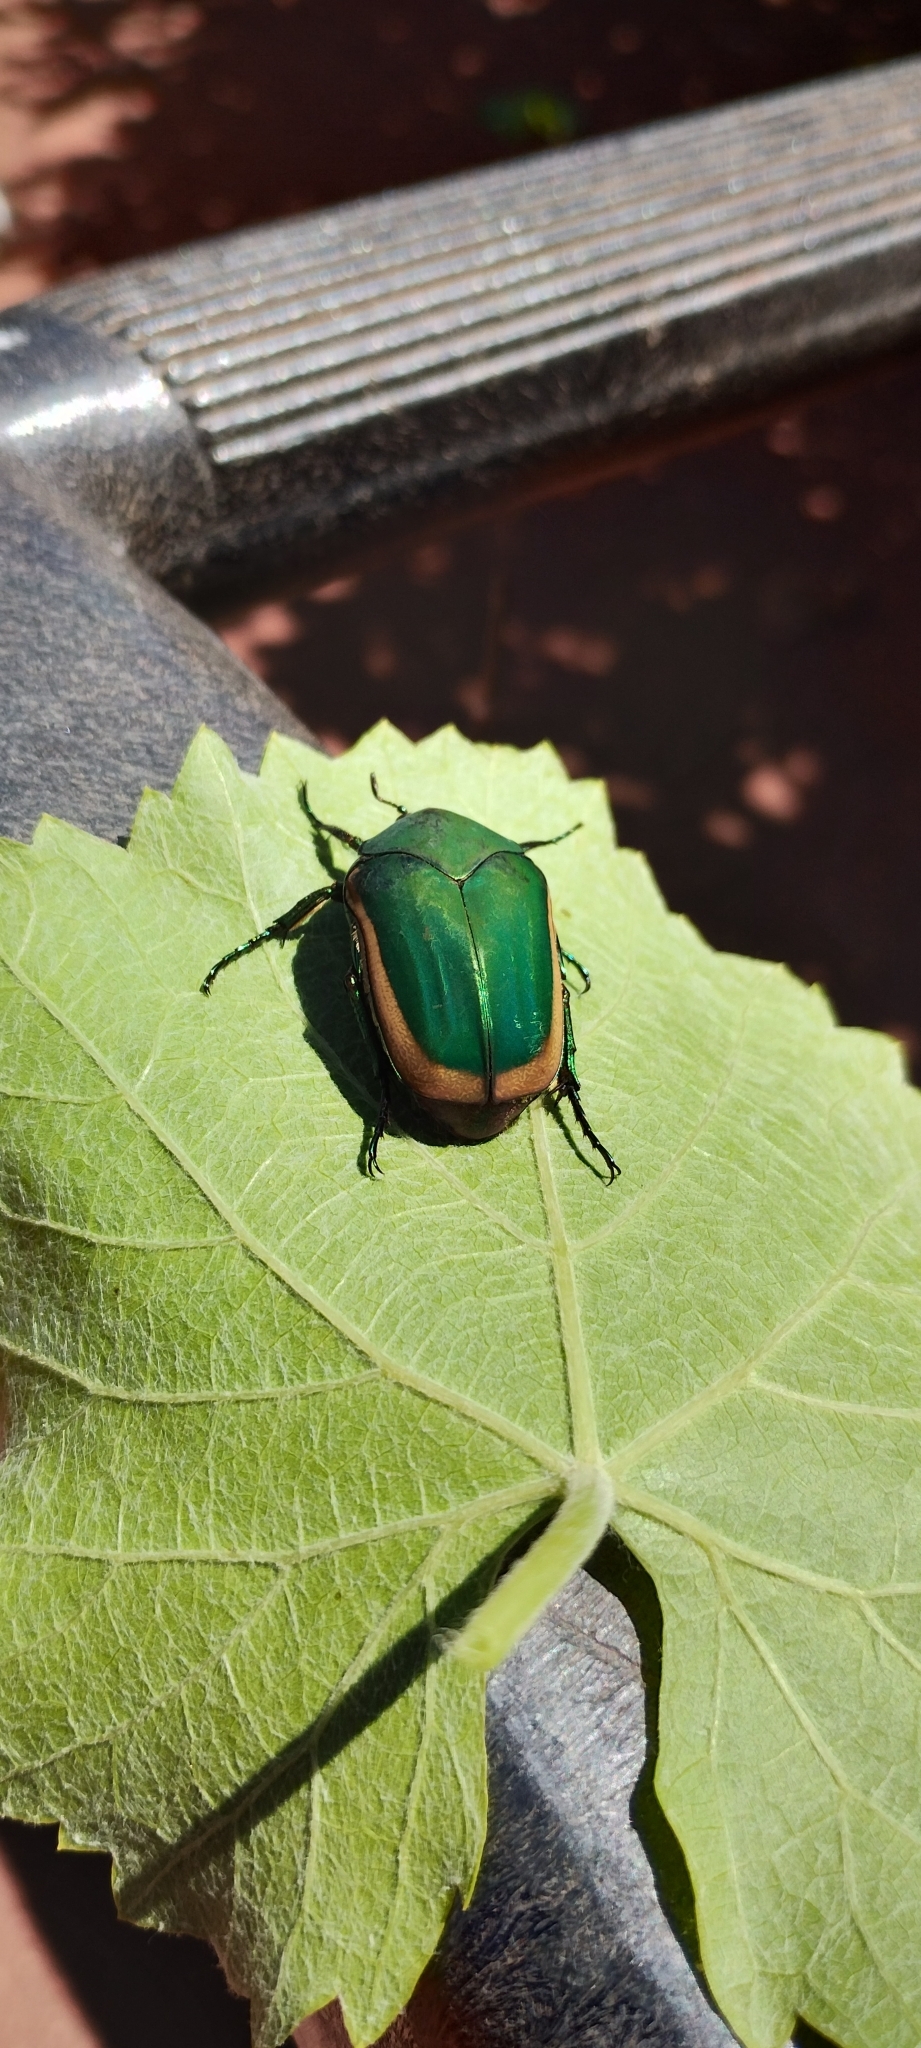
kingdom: Animalia
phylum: Arthropoda
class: Insecta
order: Coleoptera
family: Scarabaeidae
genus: Cotinis
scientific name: Cotinis mutabilis
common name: Figeater beetle
